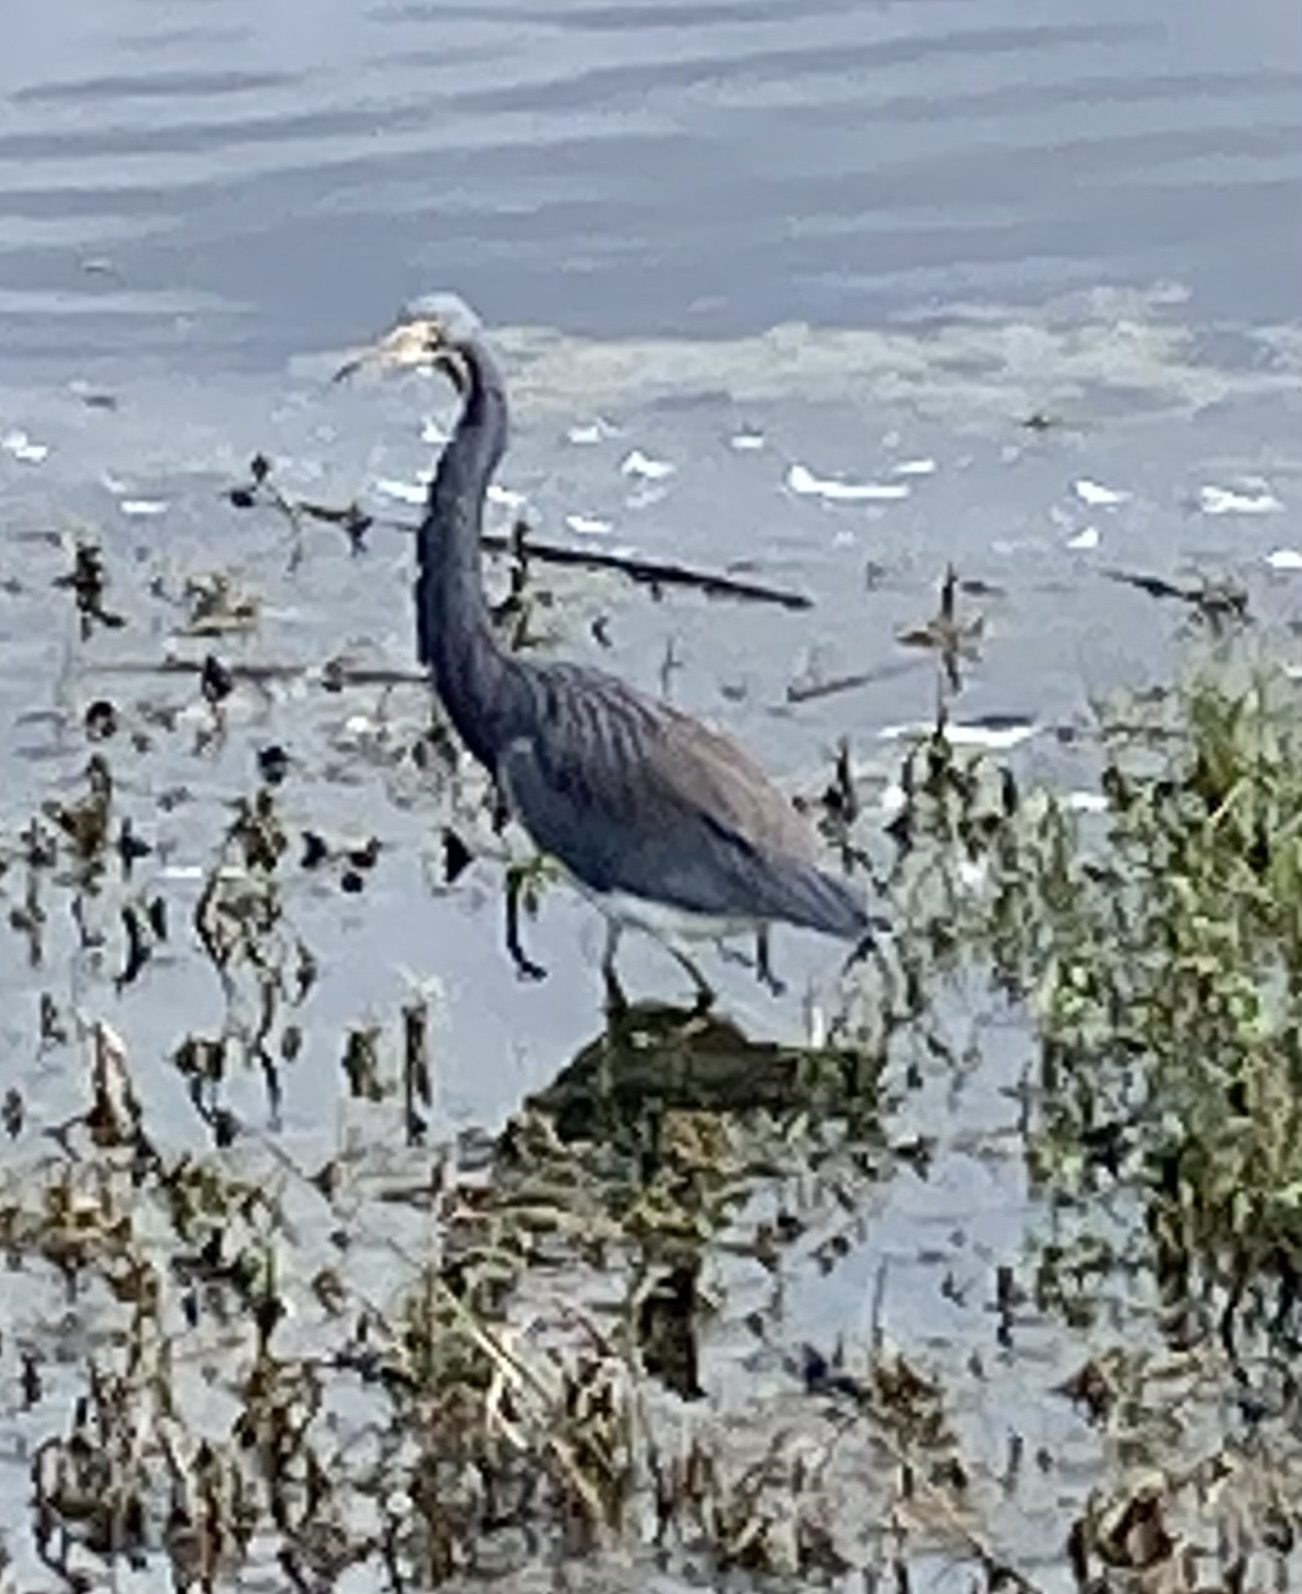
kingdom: Animalia
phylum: Chordata
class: Aves
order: Pelecaniformes
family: Ardeidae
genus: Egretta
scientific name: Egretta tricolor
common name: Tricolored heron
